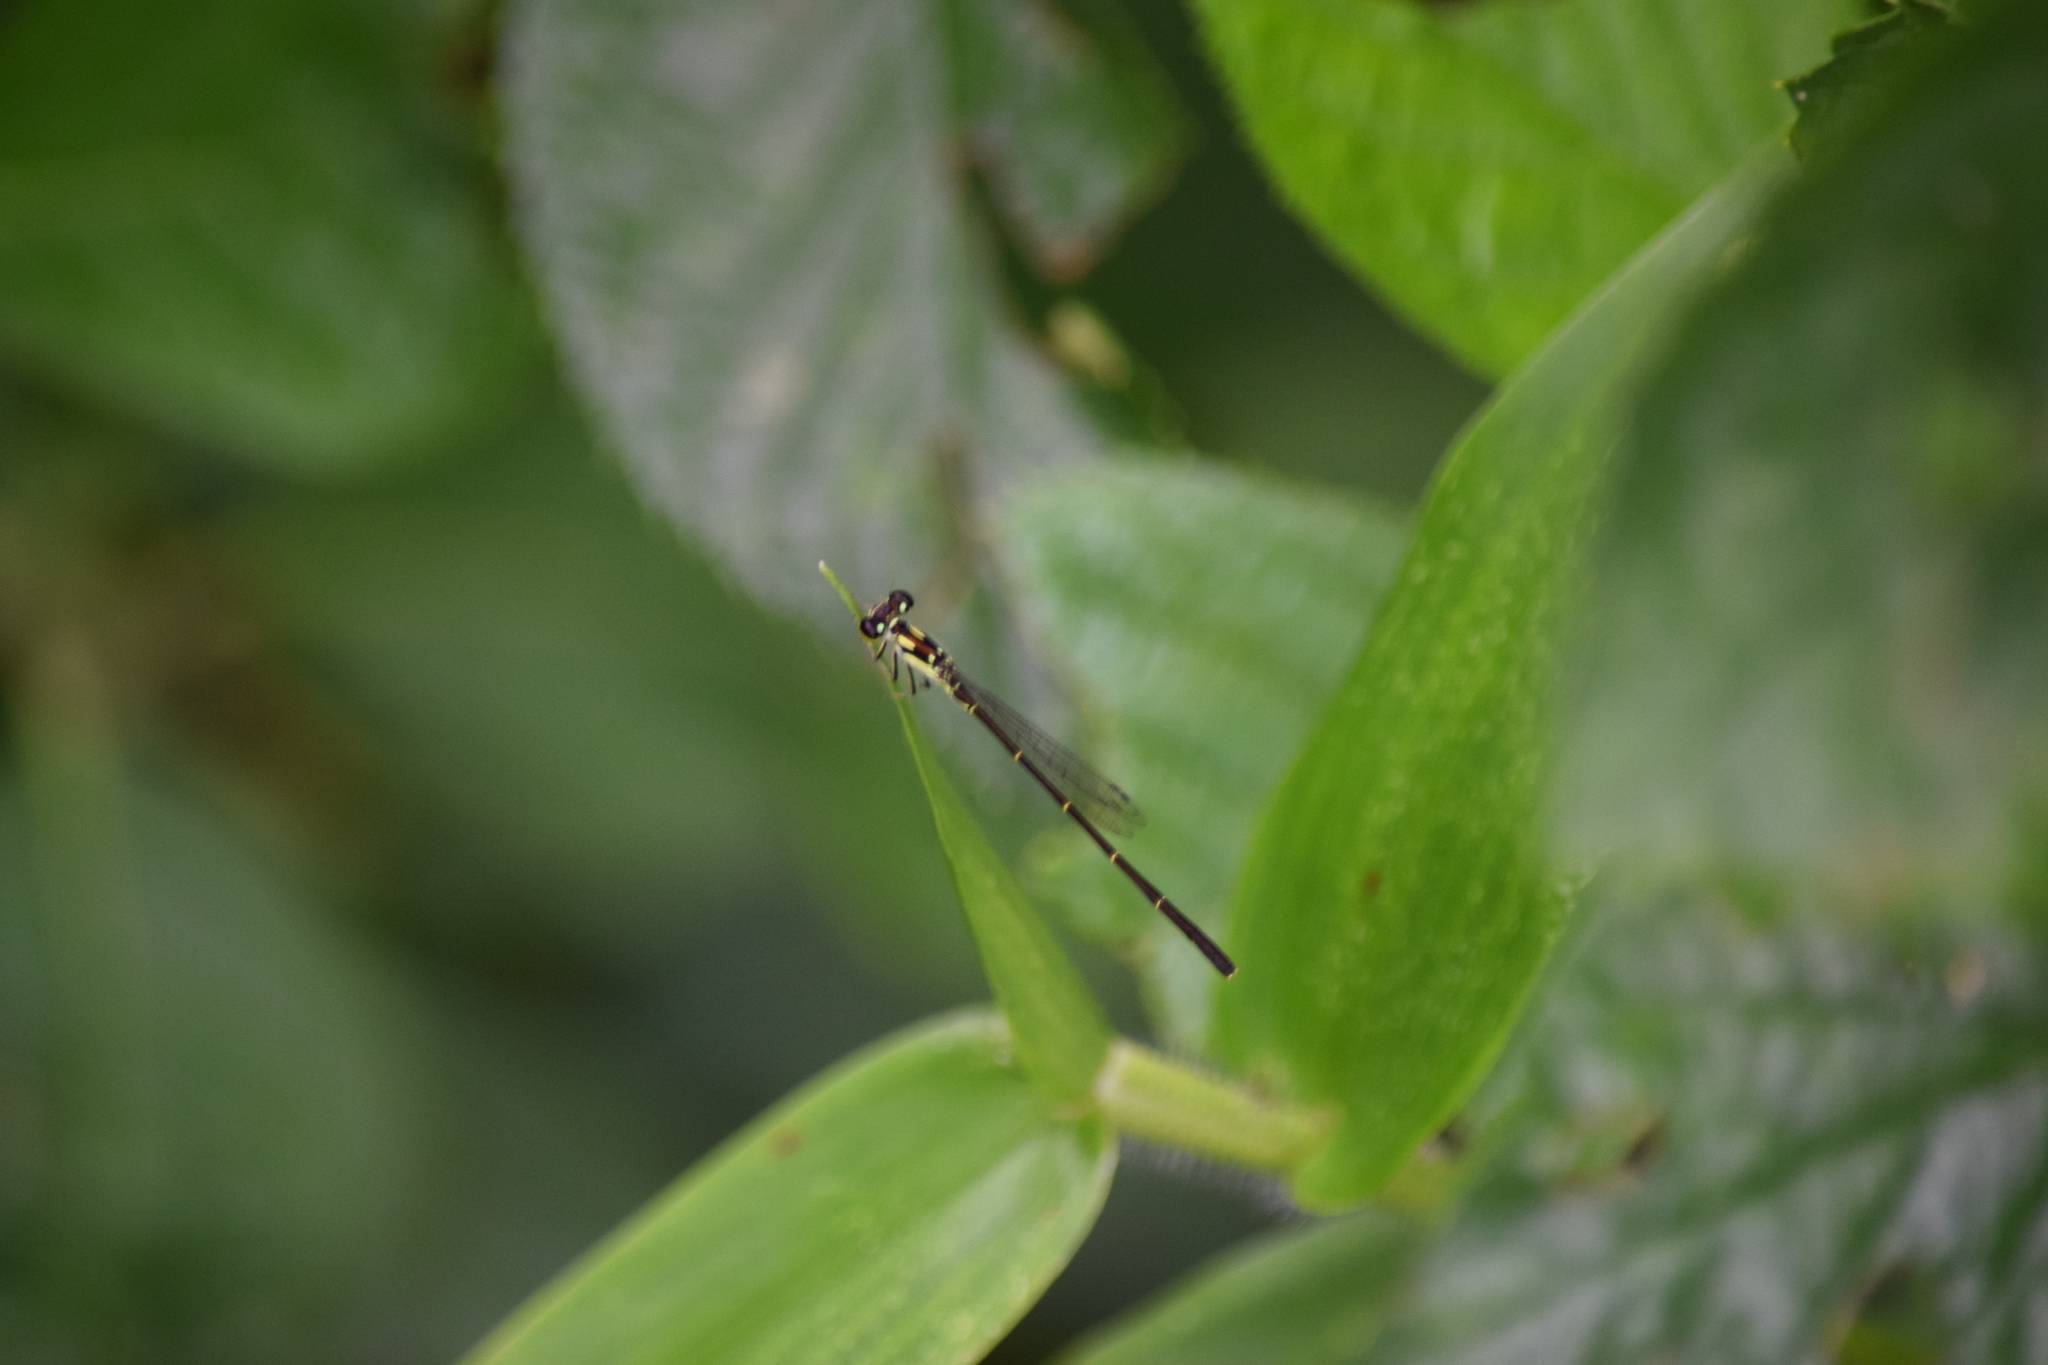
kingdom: Animalia
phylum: Arthropoda
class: Insecta
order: Odonata
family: Coenagrionidae
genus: Ischnura
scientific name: Ischnura posita
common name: Fragile forktail
